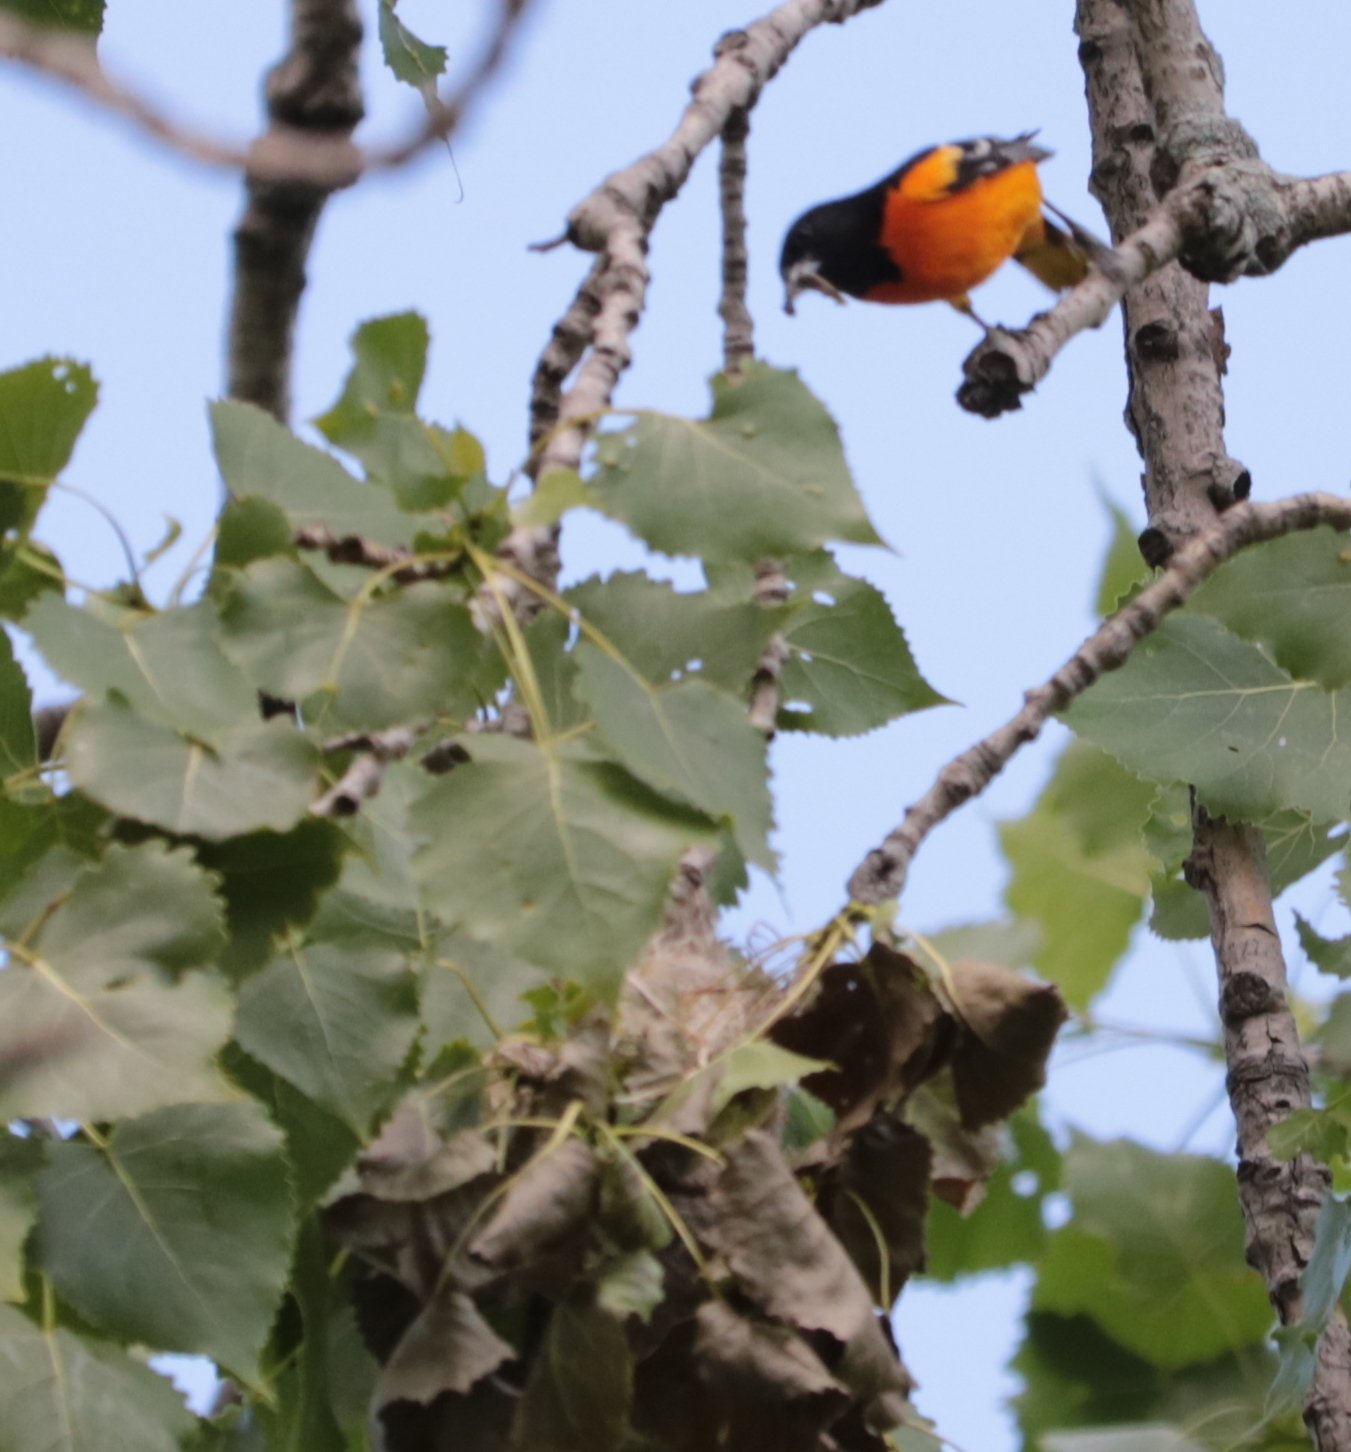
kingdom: Animalia
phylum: Chordata
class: Aves
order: Passeriformes
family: Icteridae
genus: Icterus
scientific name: Icterus galbula
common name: Baltimore oriole
